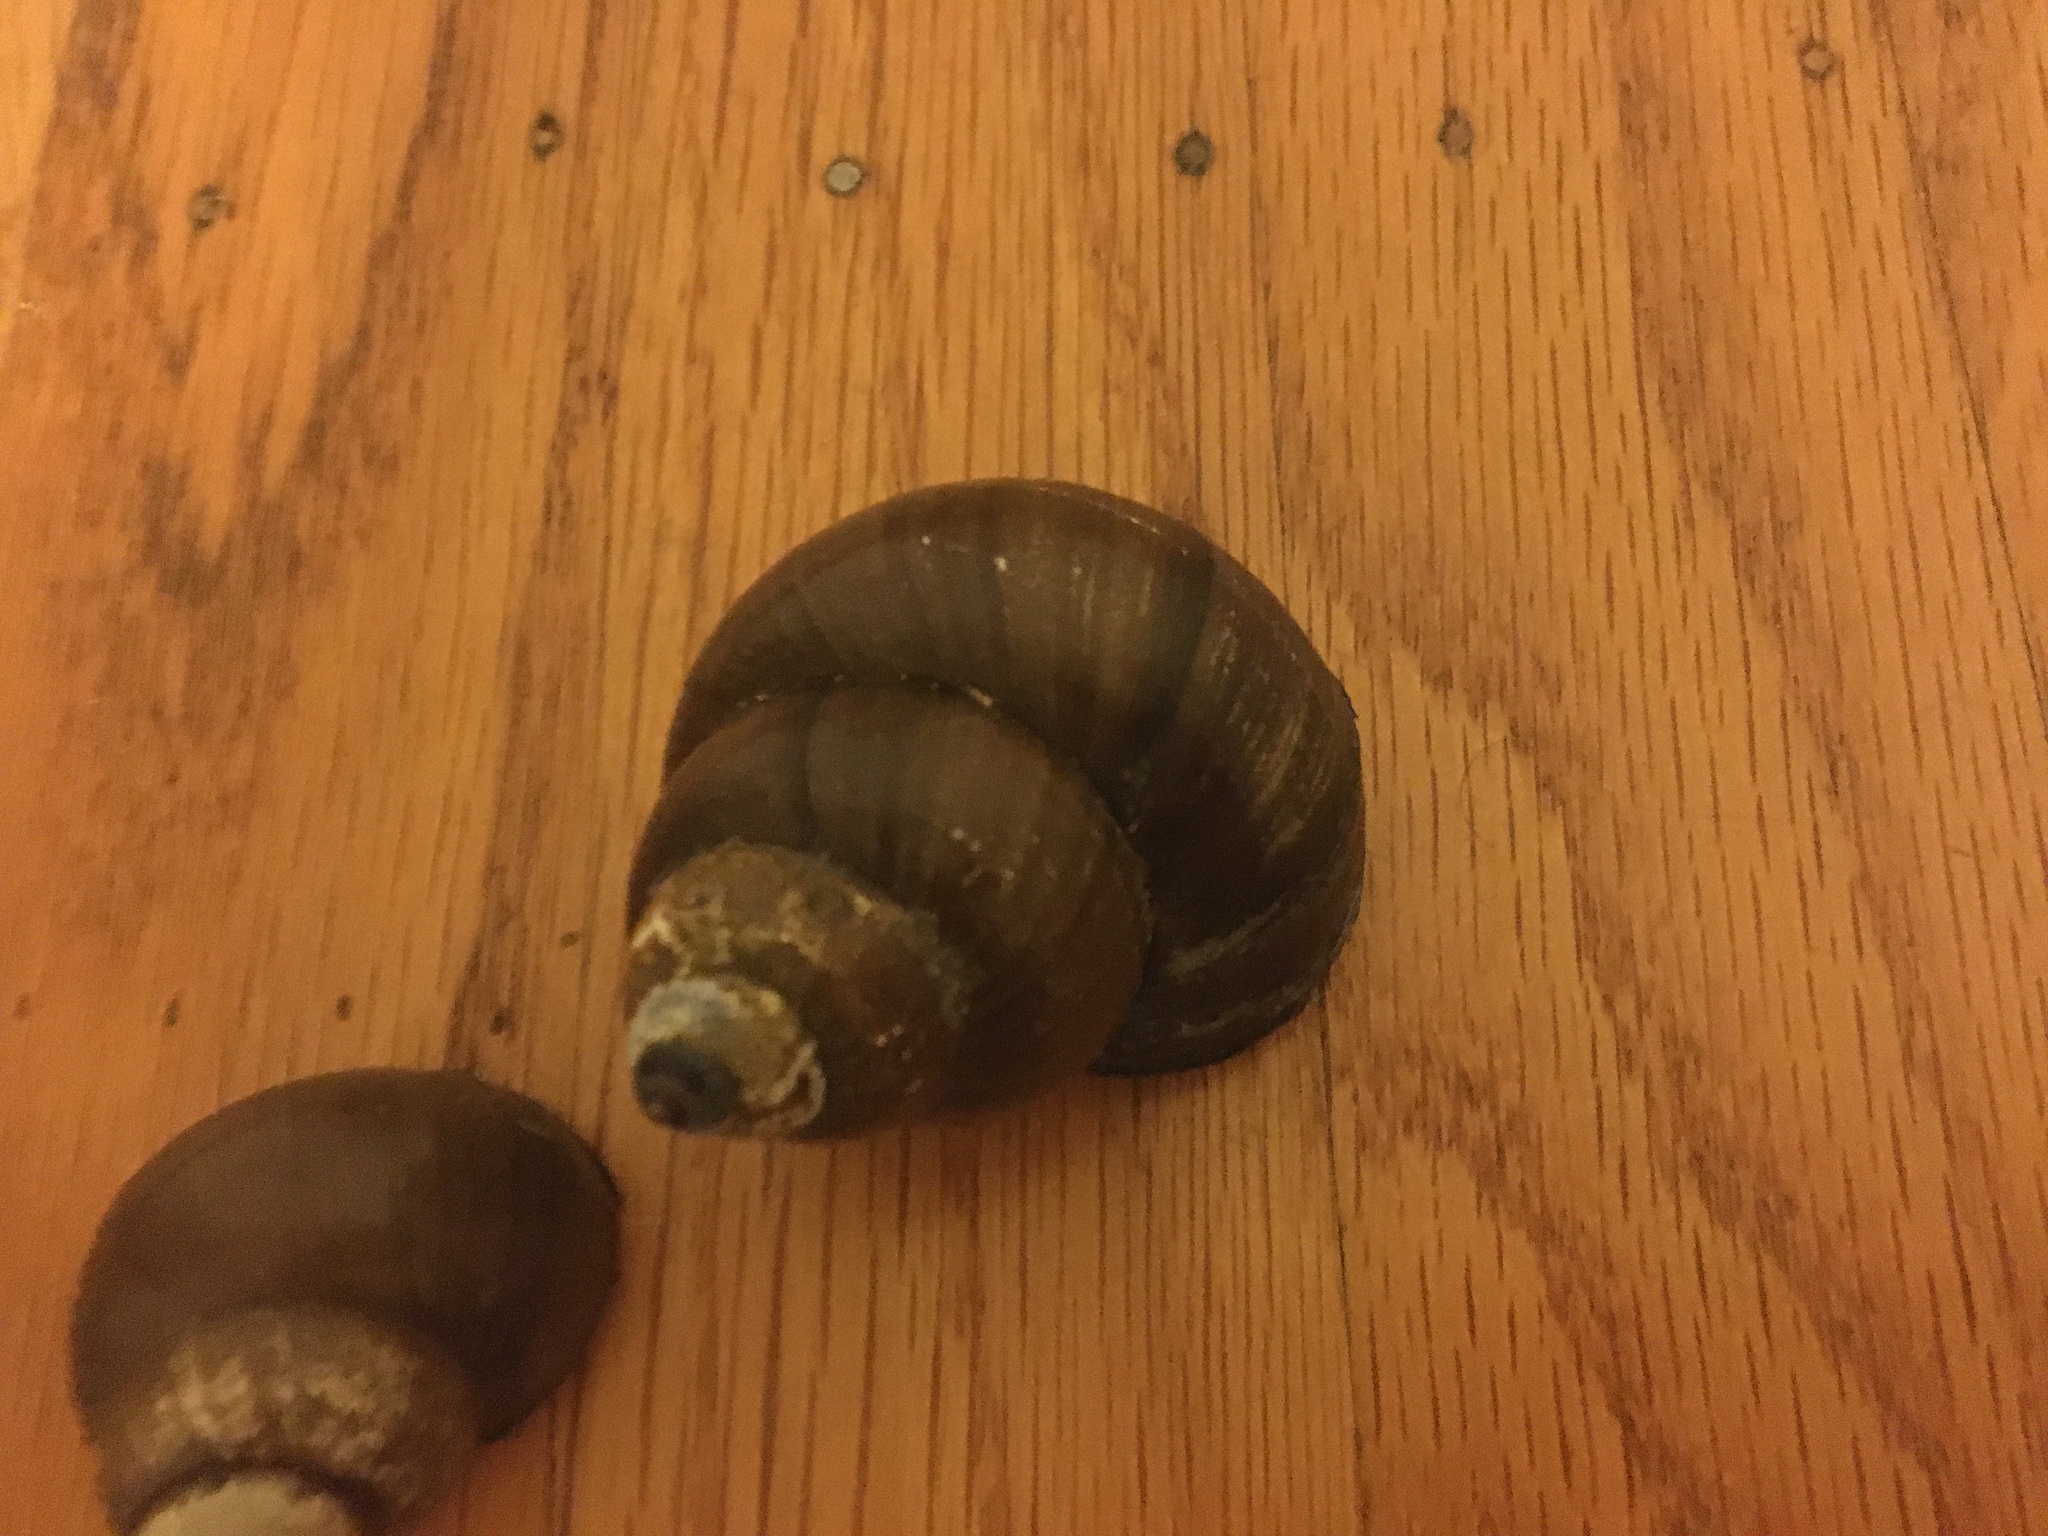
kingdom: Animalia
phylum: Mollusca
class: Gastropoda
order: Architaenioglossa
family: Viviparidae
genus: Cipangopaludina
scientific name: Cipangopaludina chinensis
